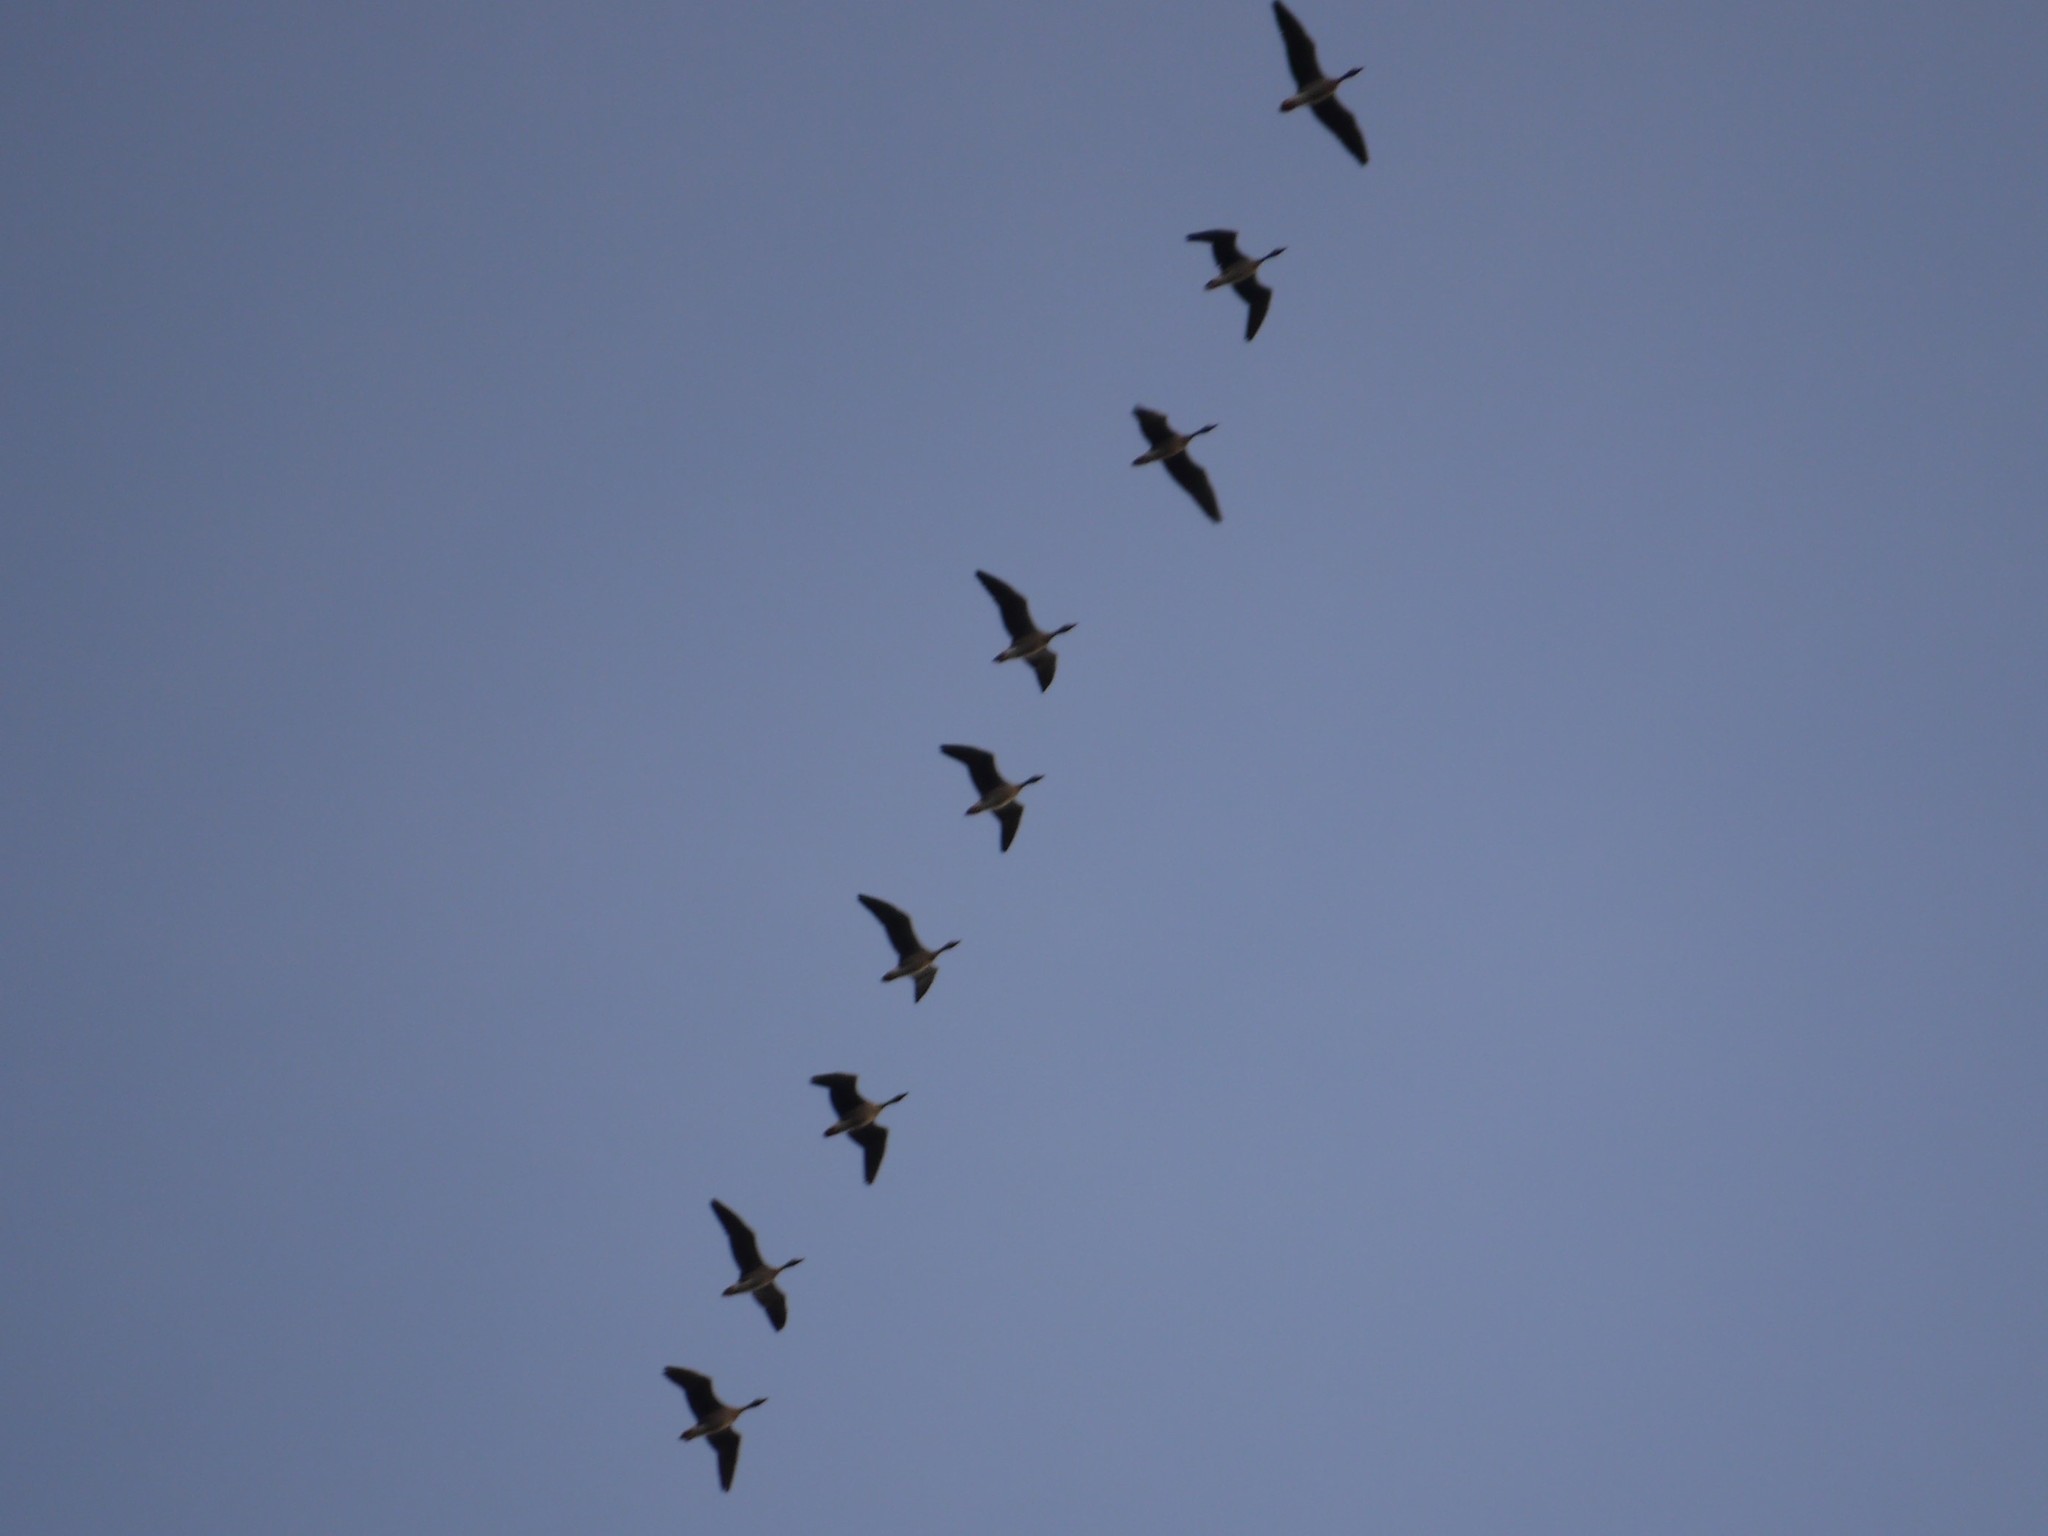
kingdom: Animalia
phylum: Chordata
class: Aves
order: Anseriformes
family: Anatidae
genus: Anser
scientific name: Anser anser
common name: Greylag goose
